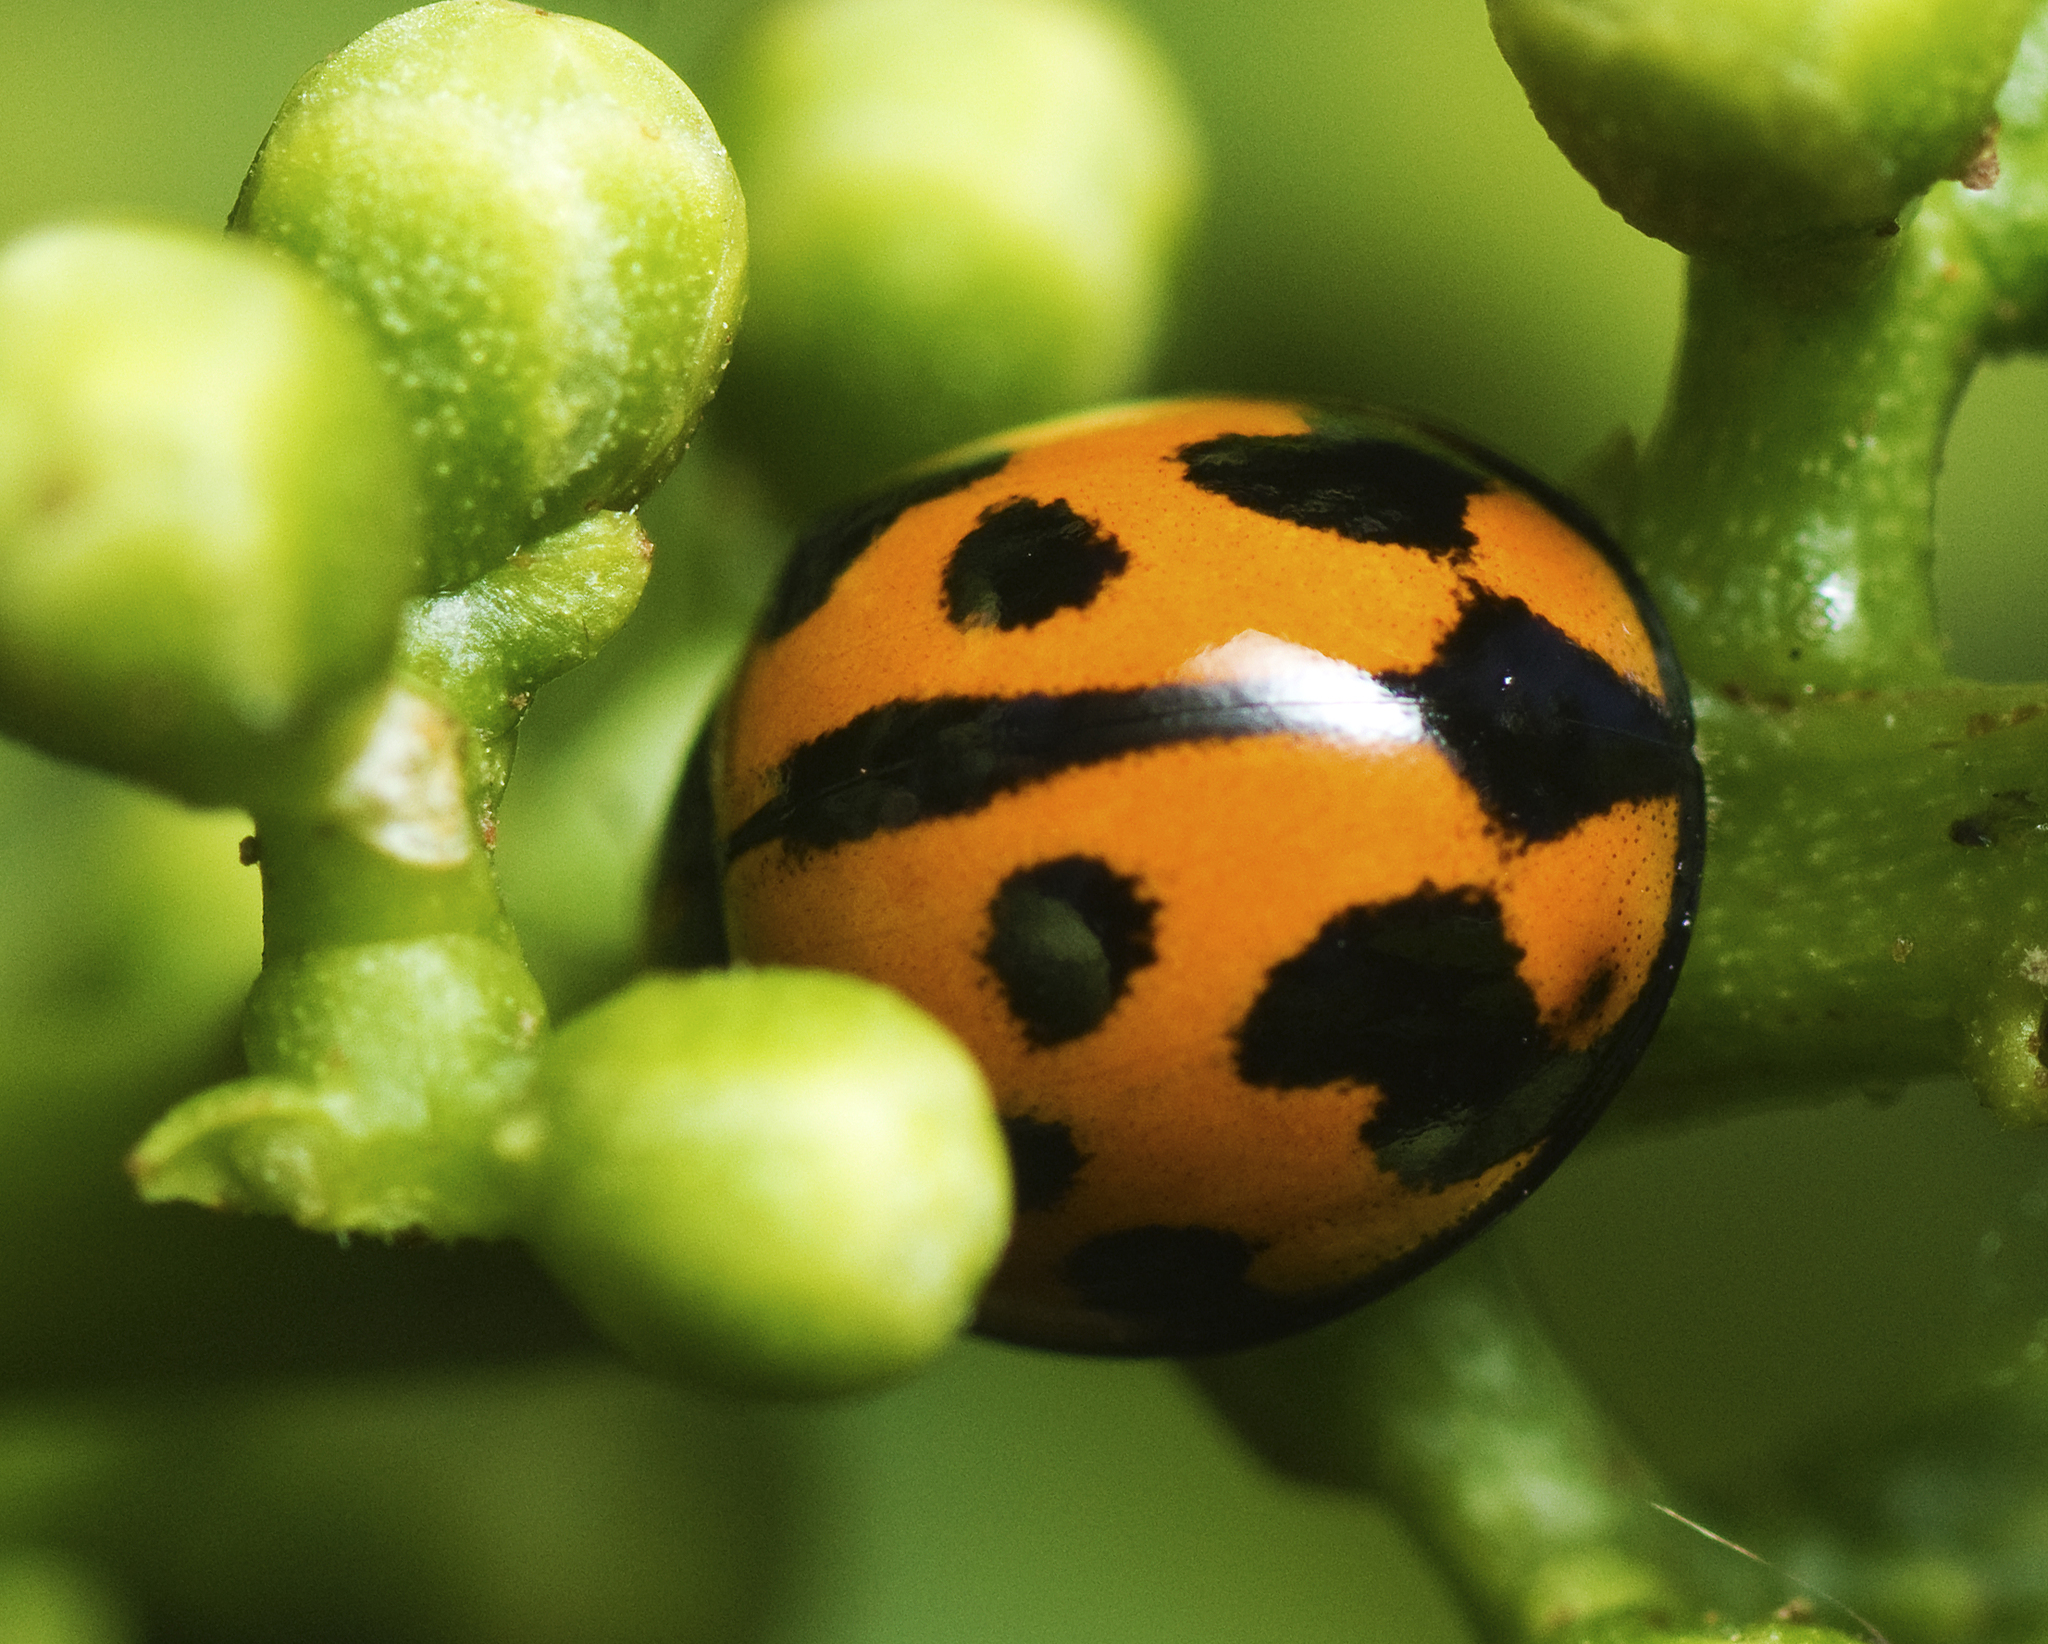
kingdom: Animalia
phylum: Arthropoda
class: Insecta
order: Coleoptera
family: Coccinellidae
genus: Coelophora
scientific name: Coelophora inaequalis
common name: Common australian lady beetle
